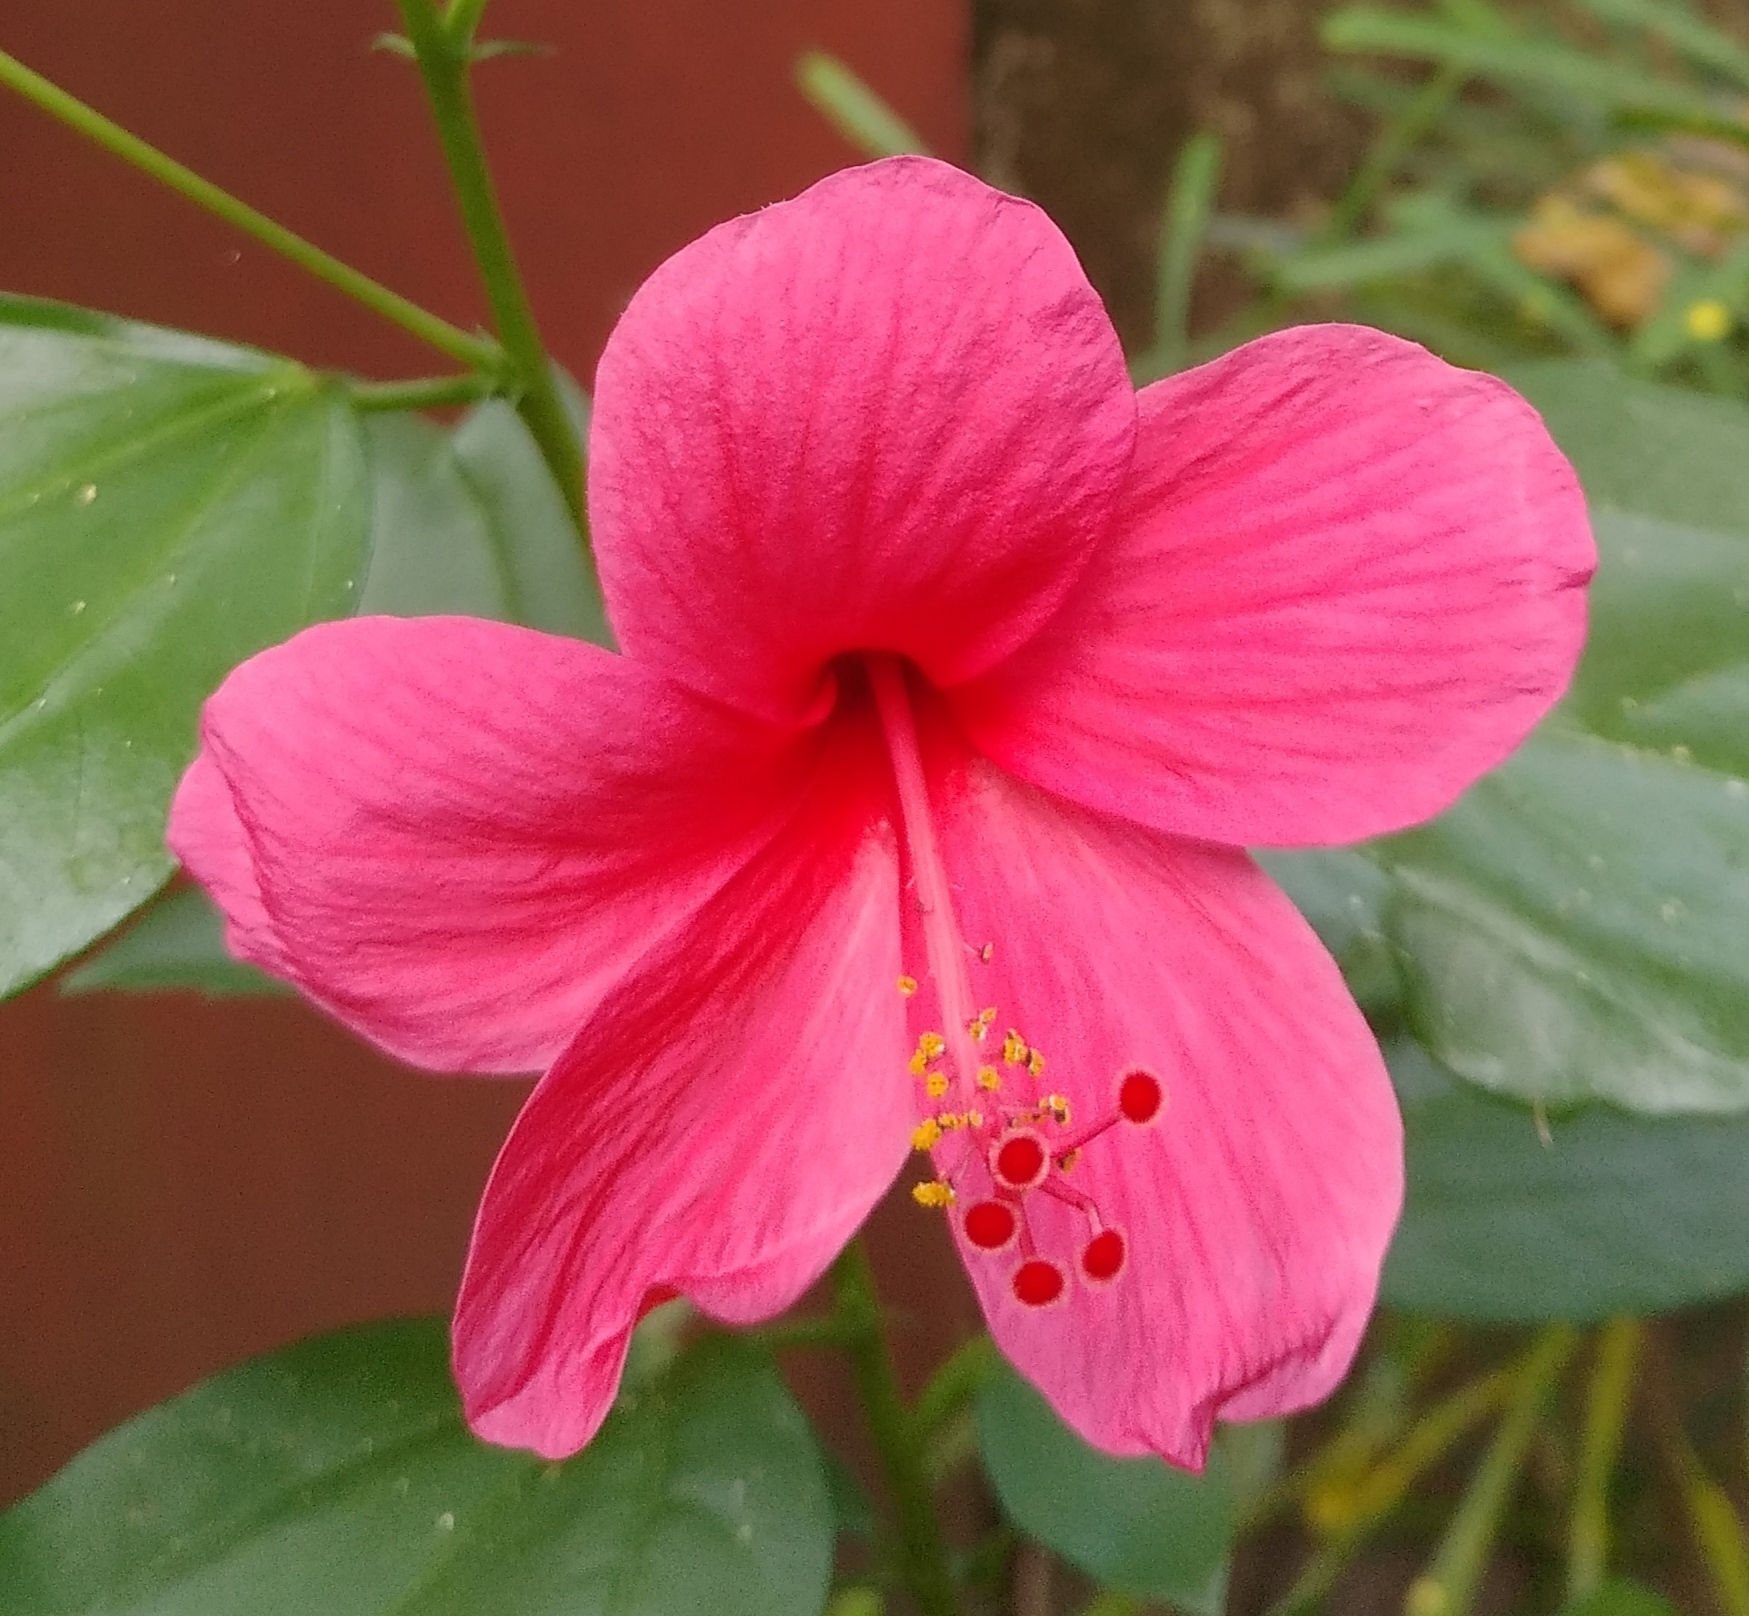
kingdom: Plantae
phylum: Tracheophyta
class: Magnoliopsida
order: Malvales
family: Malvaceae
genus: Hibiscus
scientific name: Hibiscus rosa-sinensis
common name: Hibiscus
